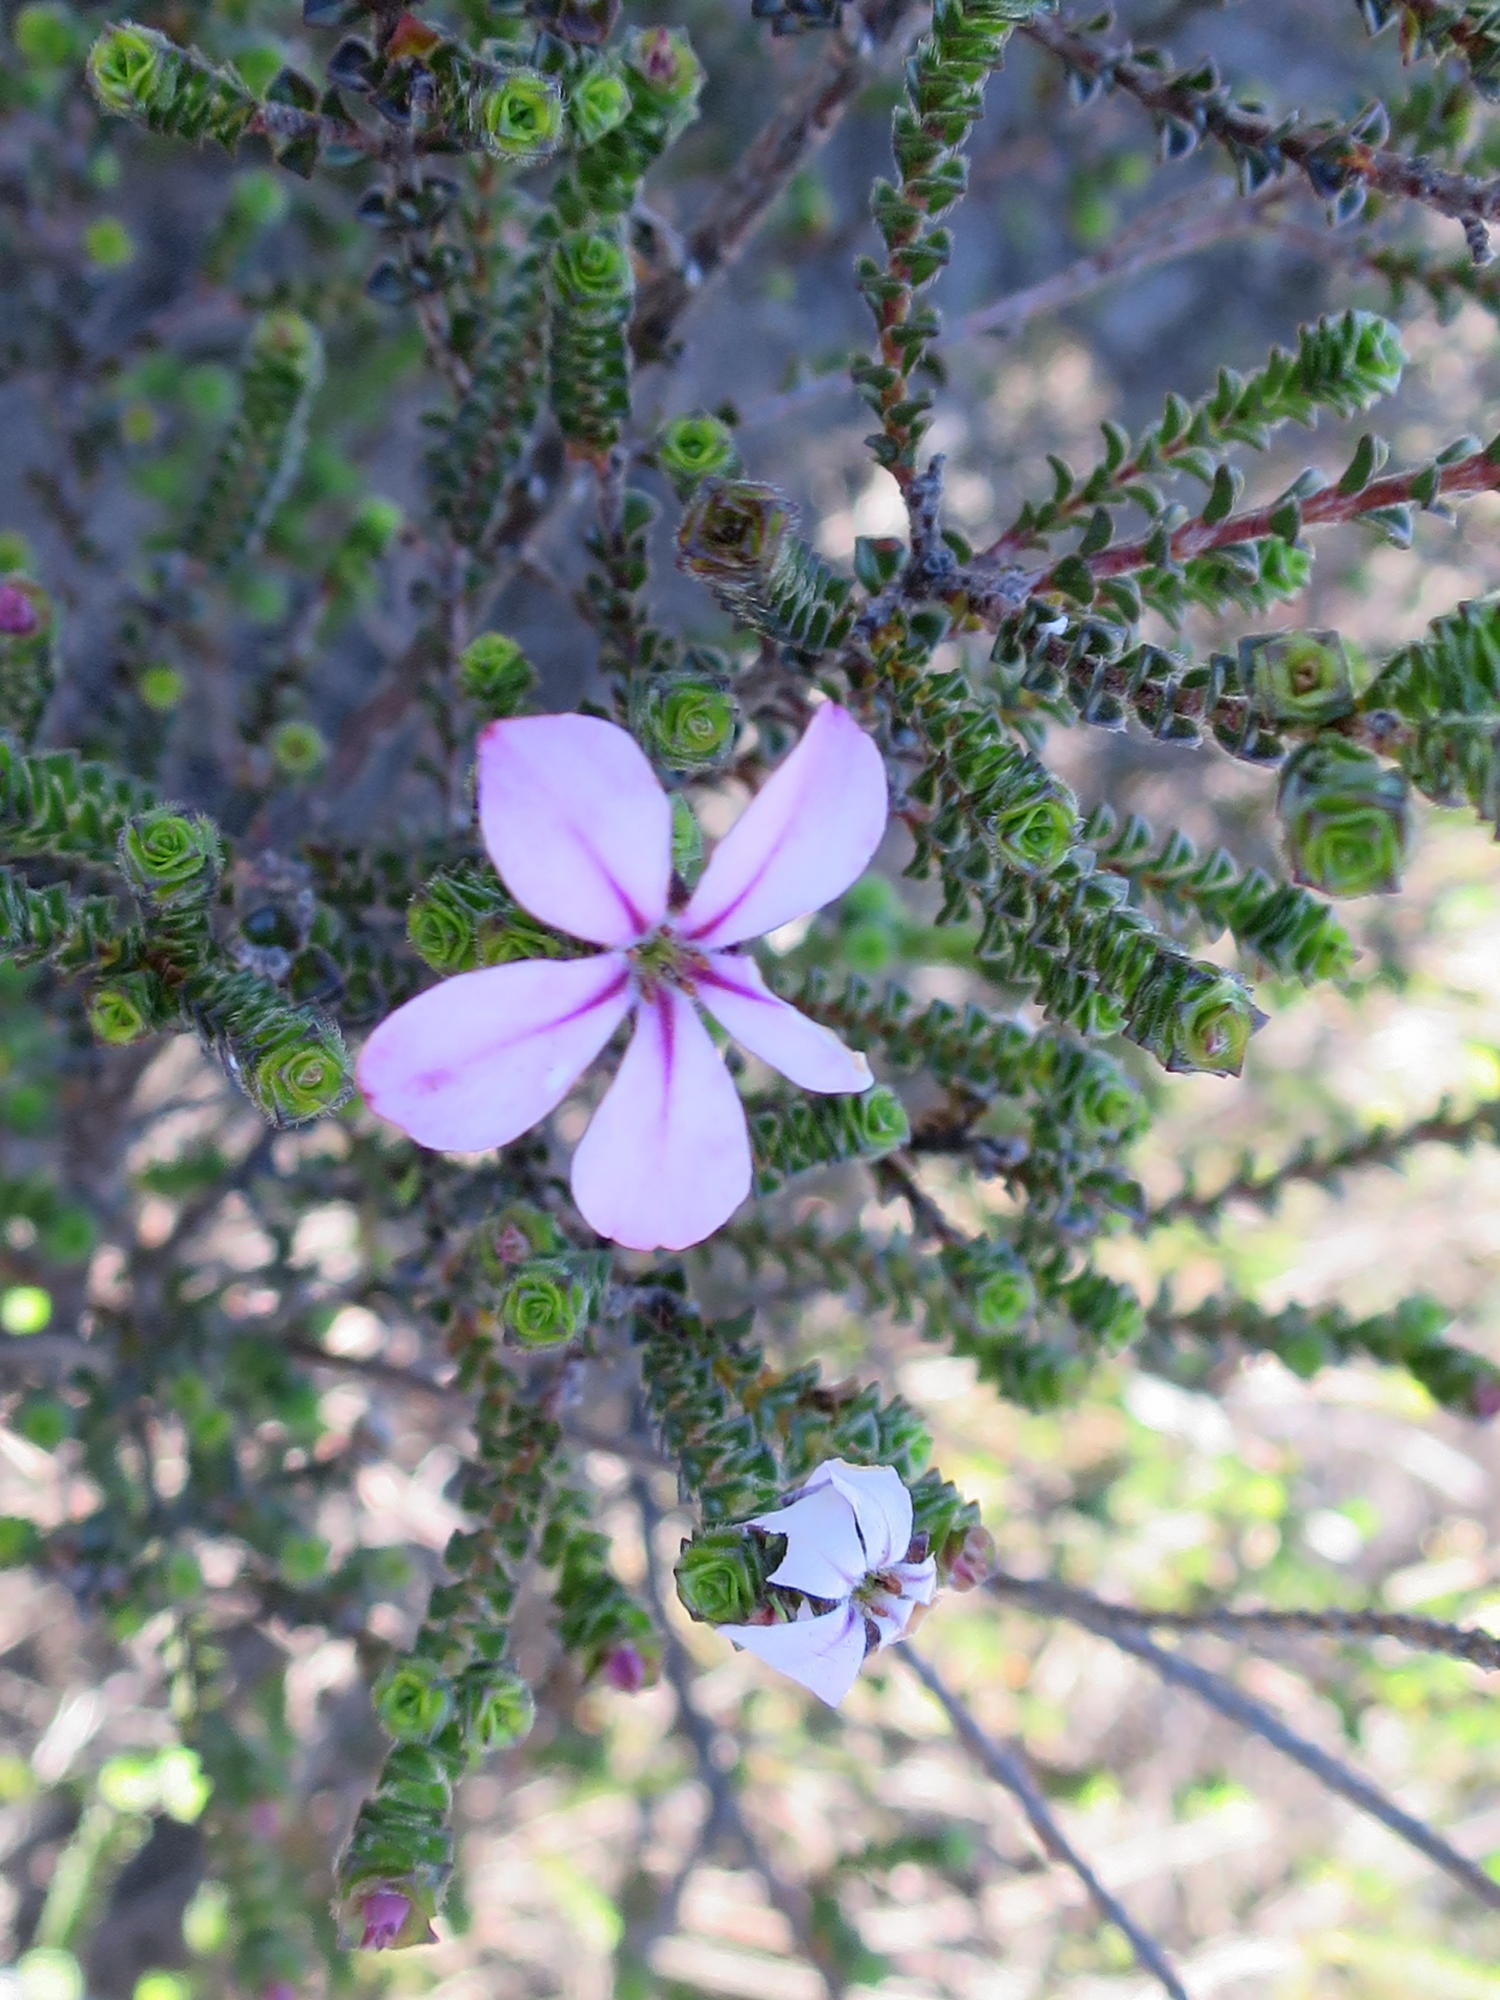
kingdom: Plantae
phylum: Tracheophyta
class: Magnoliopsida
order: Sapindales
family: Rutaceae
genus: Acmadenia
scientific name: Acmadenia tetragona
